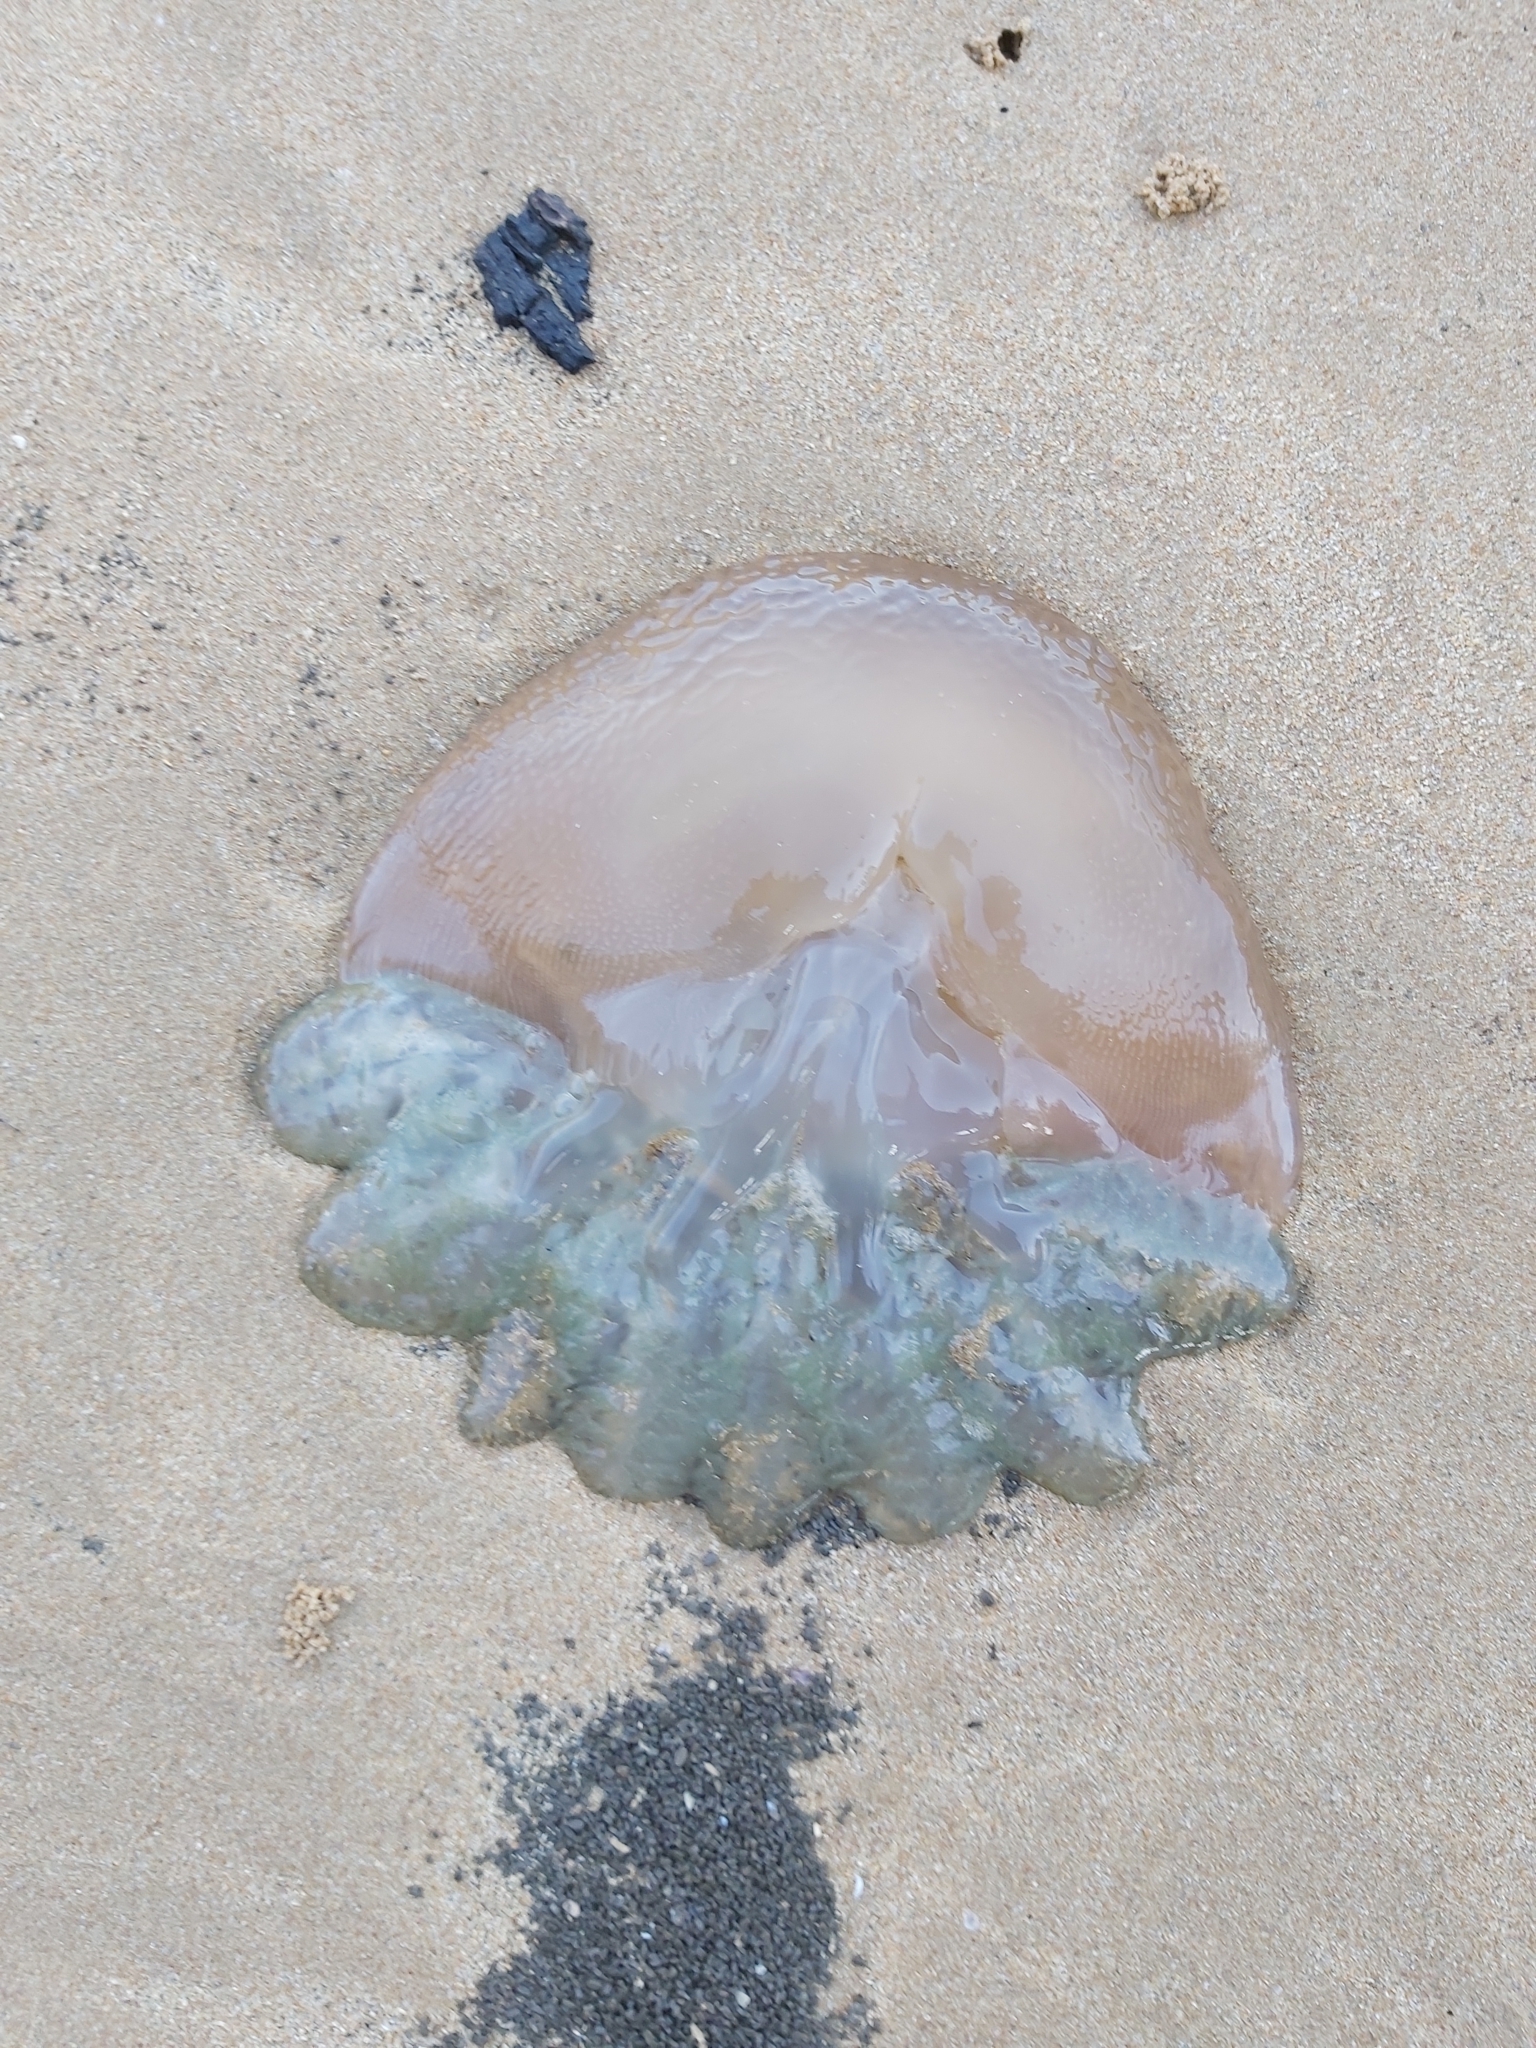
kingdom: Animalia
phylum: Cnidaria
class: Scyphozoa
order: Rhizostomeae
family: Catostylidae
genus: Catostylus
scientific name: Catostylus mosaicus
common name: Blue blubber
